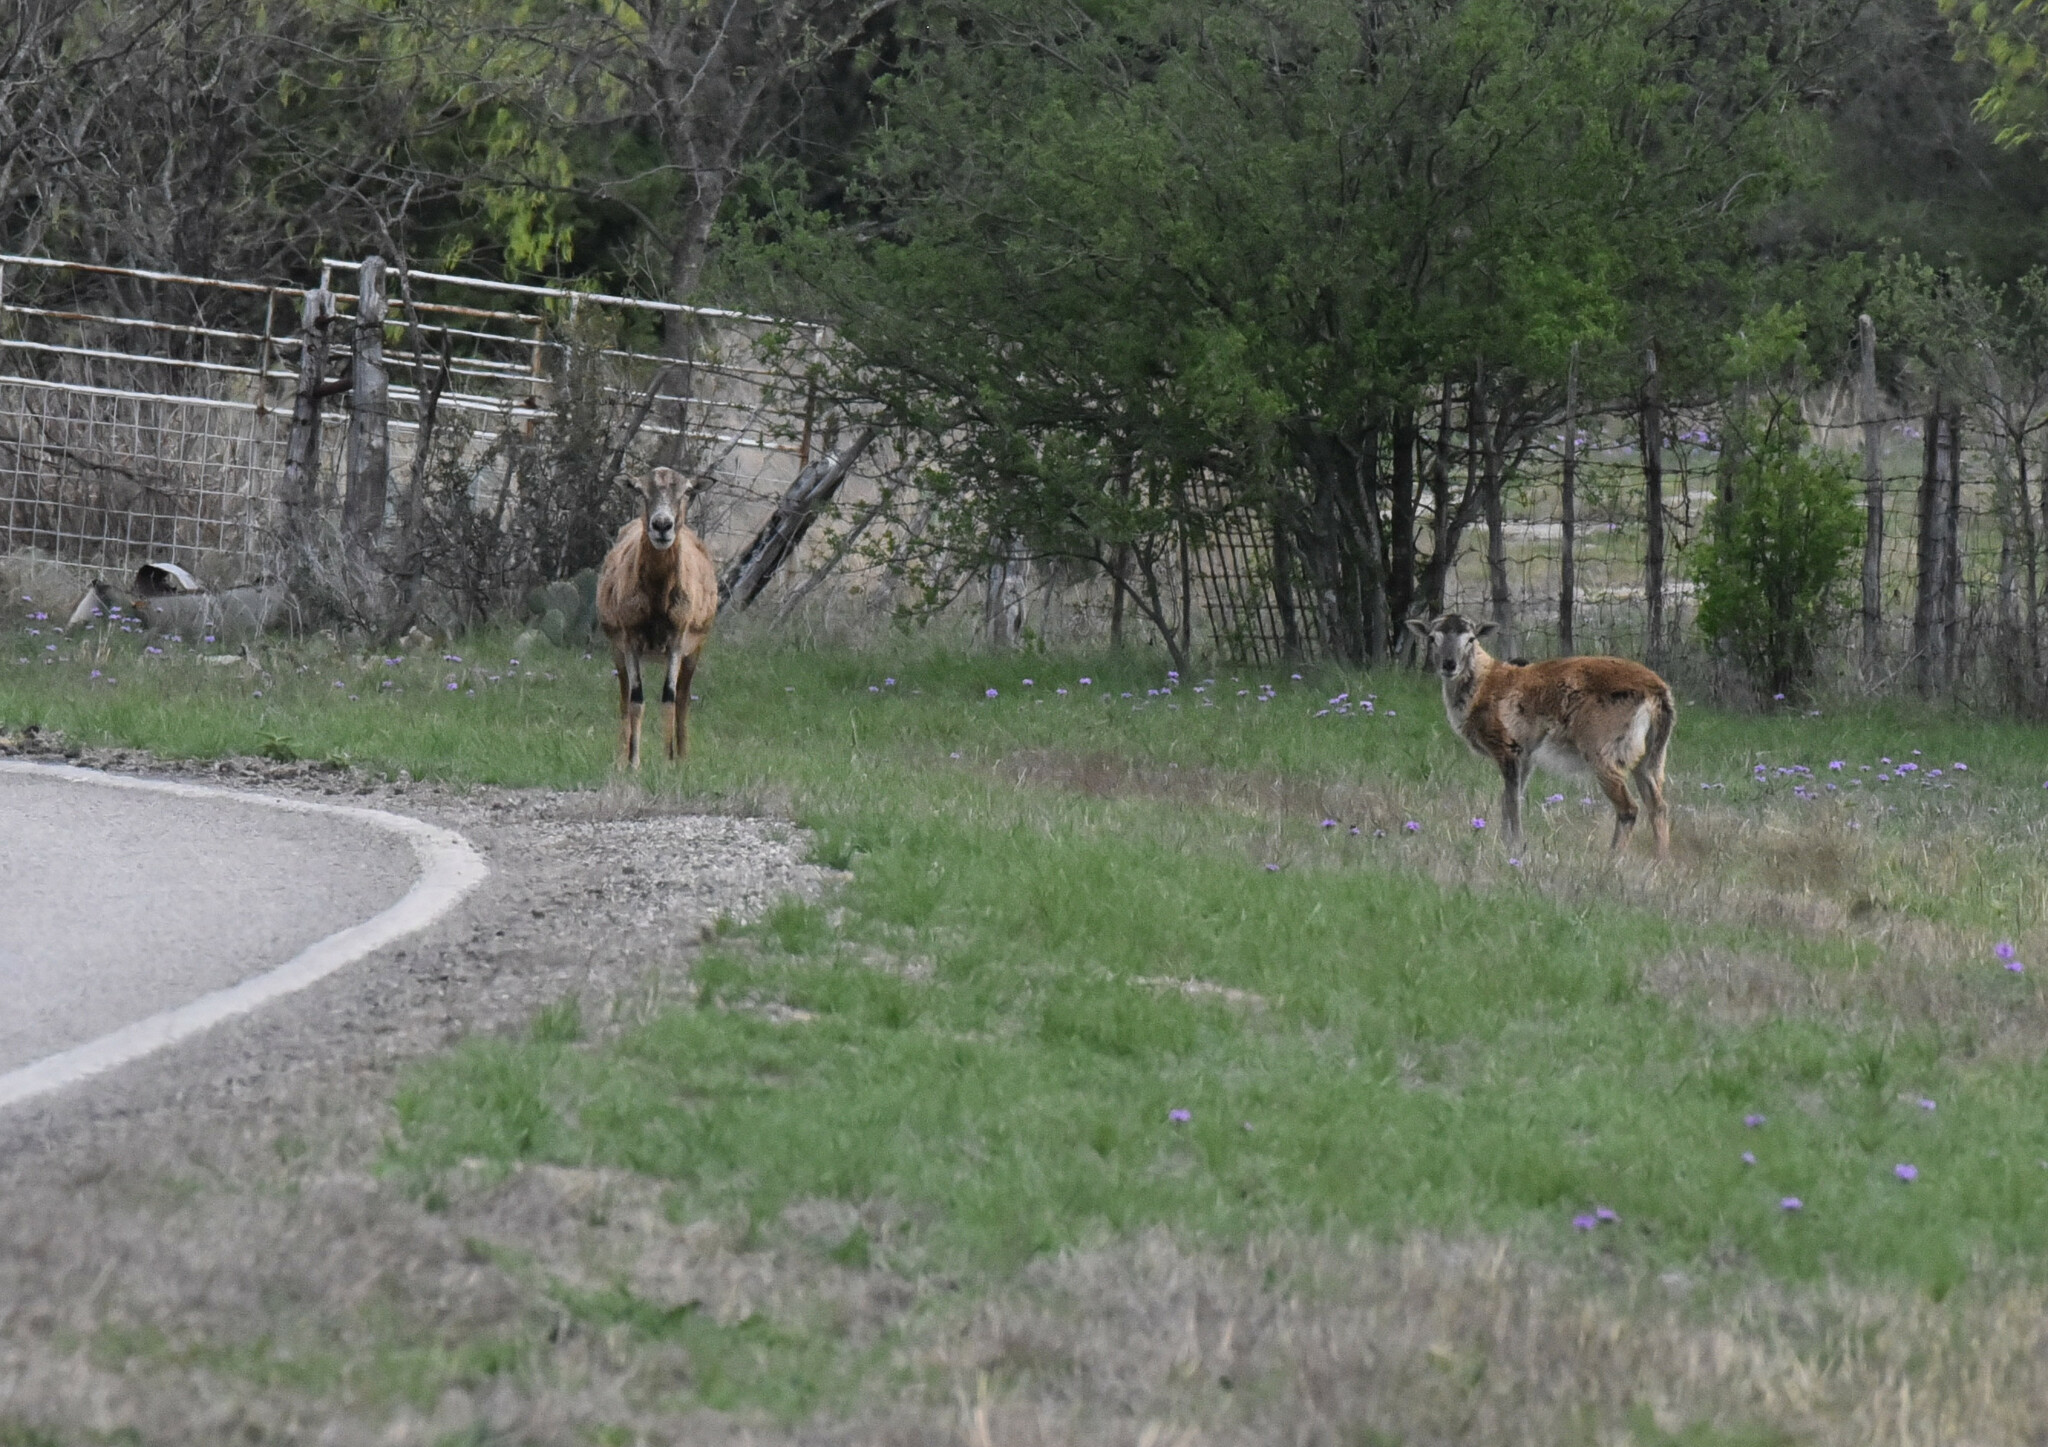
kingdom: Animalia
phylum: Chordata
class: Mammalia
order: Artiodactyla
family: Bovidae
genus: Ovis
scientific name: Ovis aries
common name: Domestic sheep
